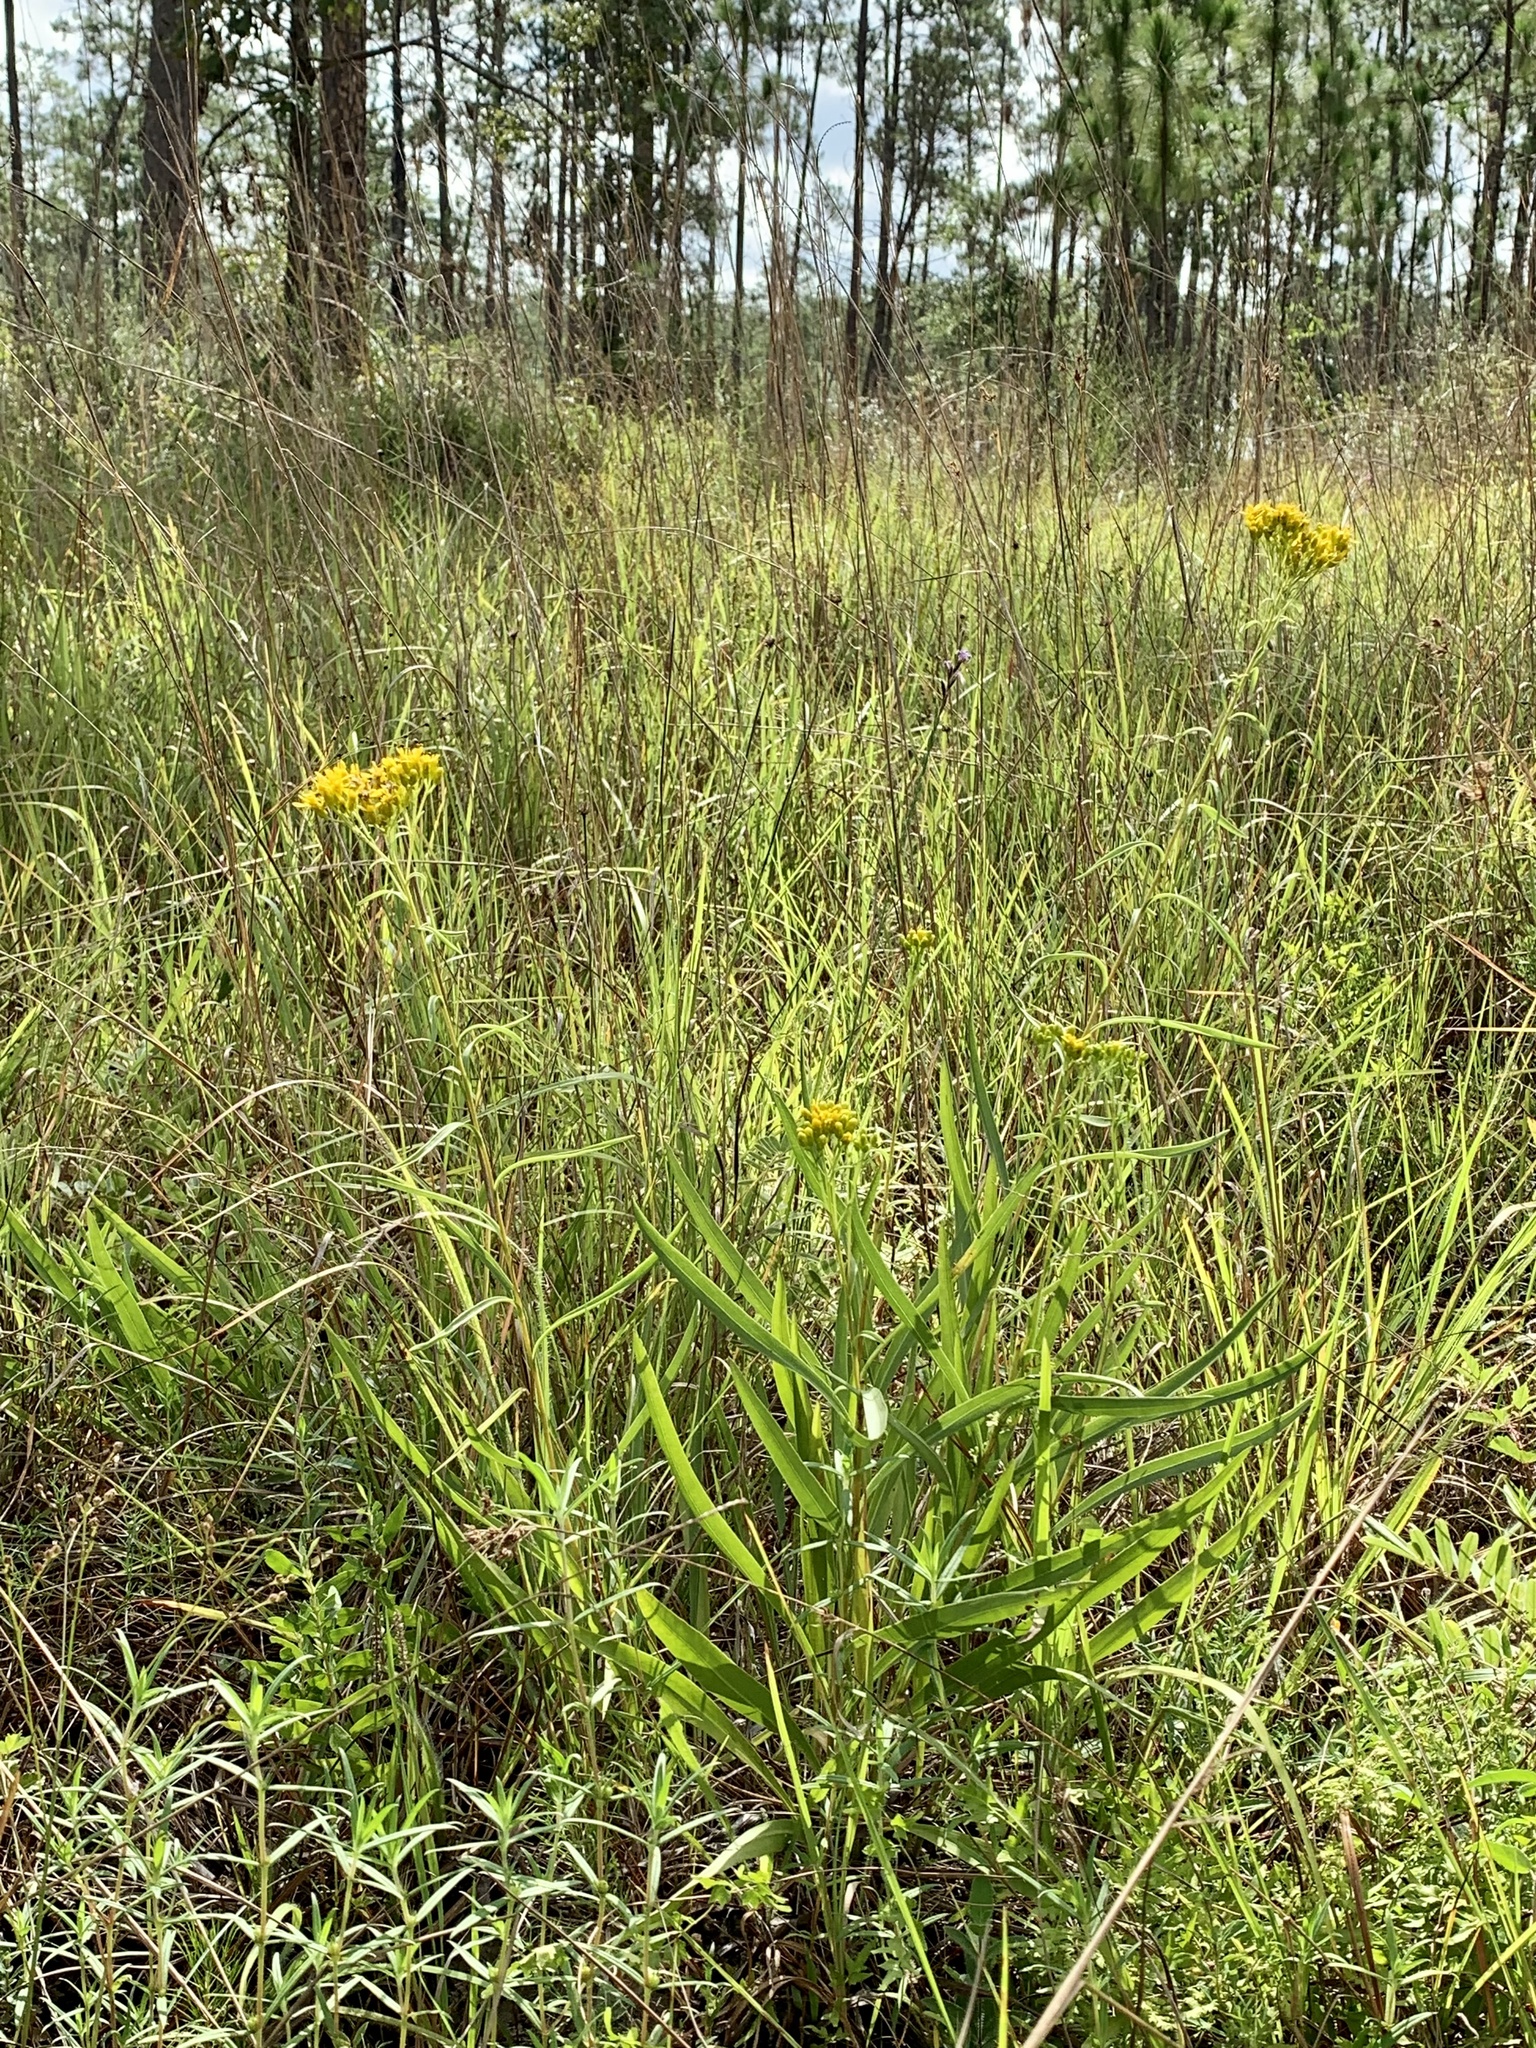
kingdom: Plantae
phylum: Tracheophyta
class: Magnoliopsida
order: Asterales
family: Asteraceae
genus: Solidago
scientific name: Solidago nitida
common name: Shiny goldenrod
